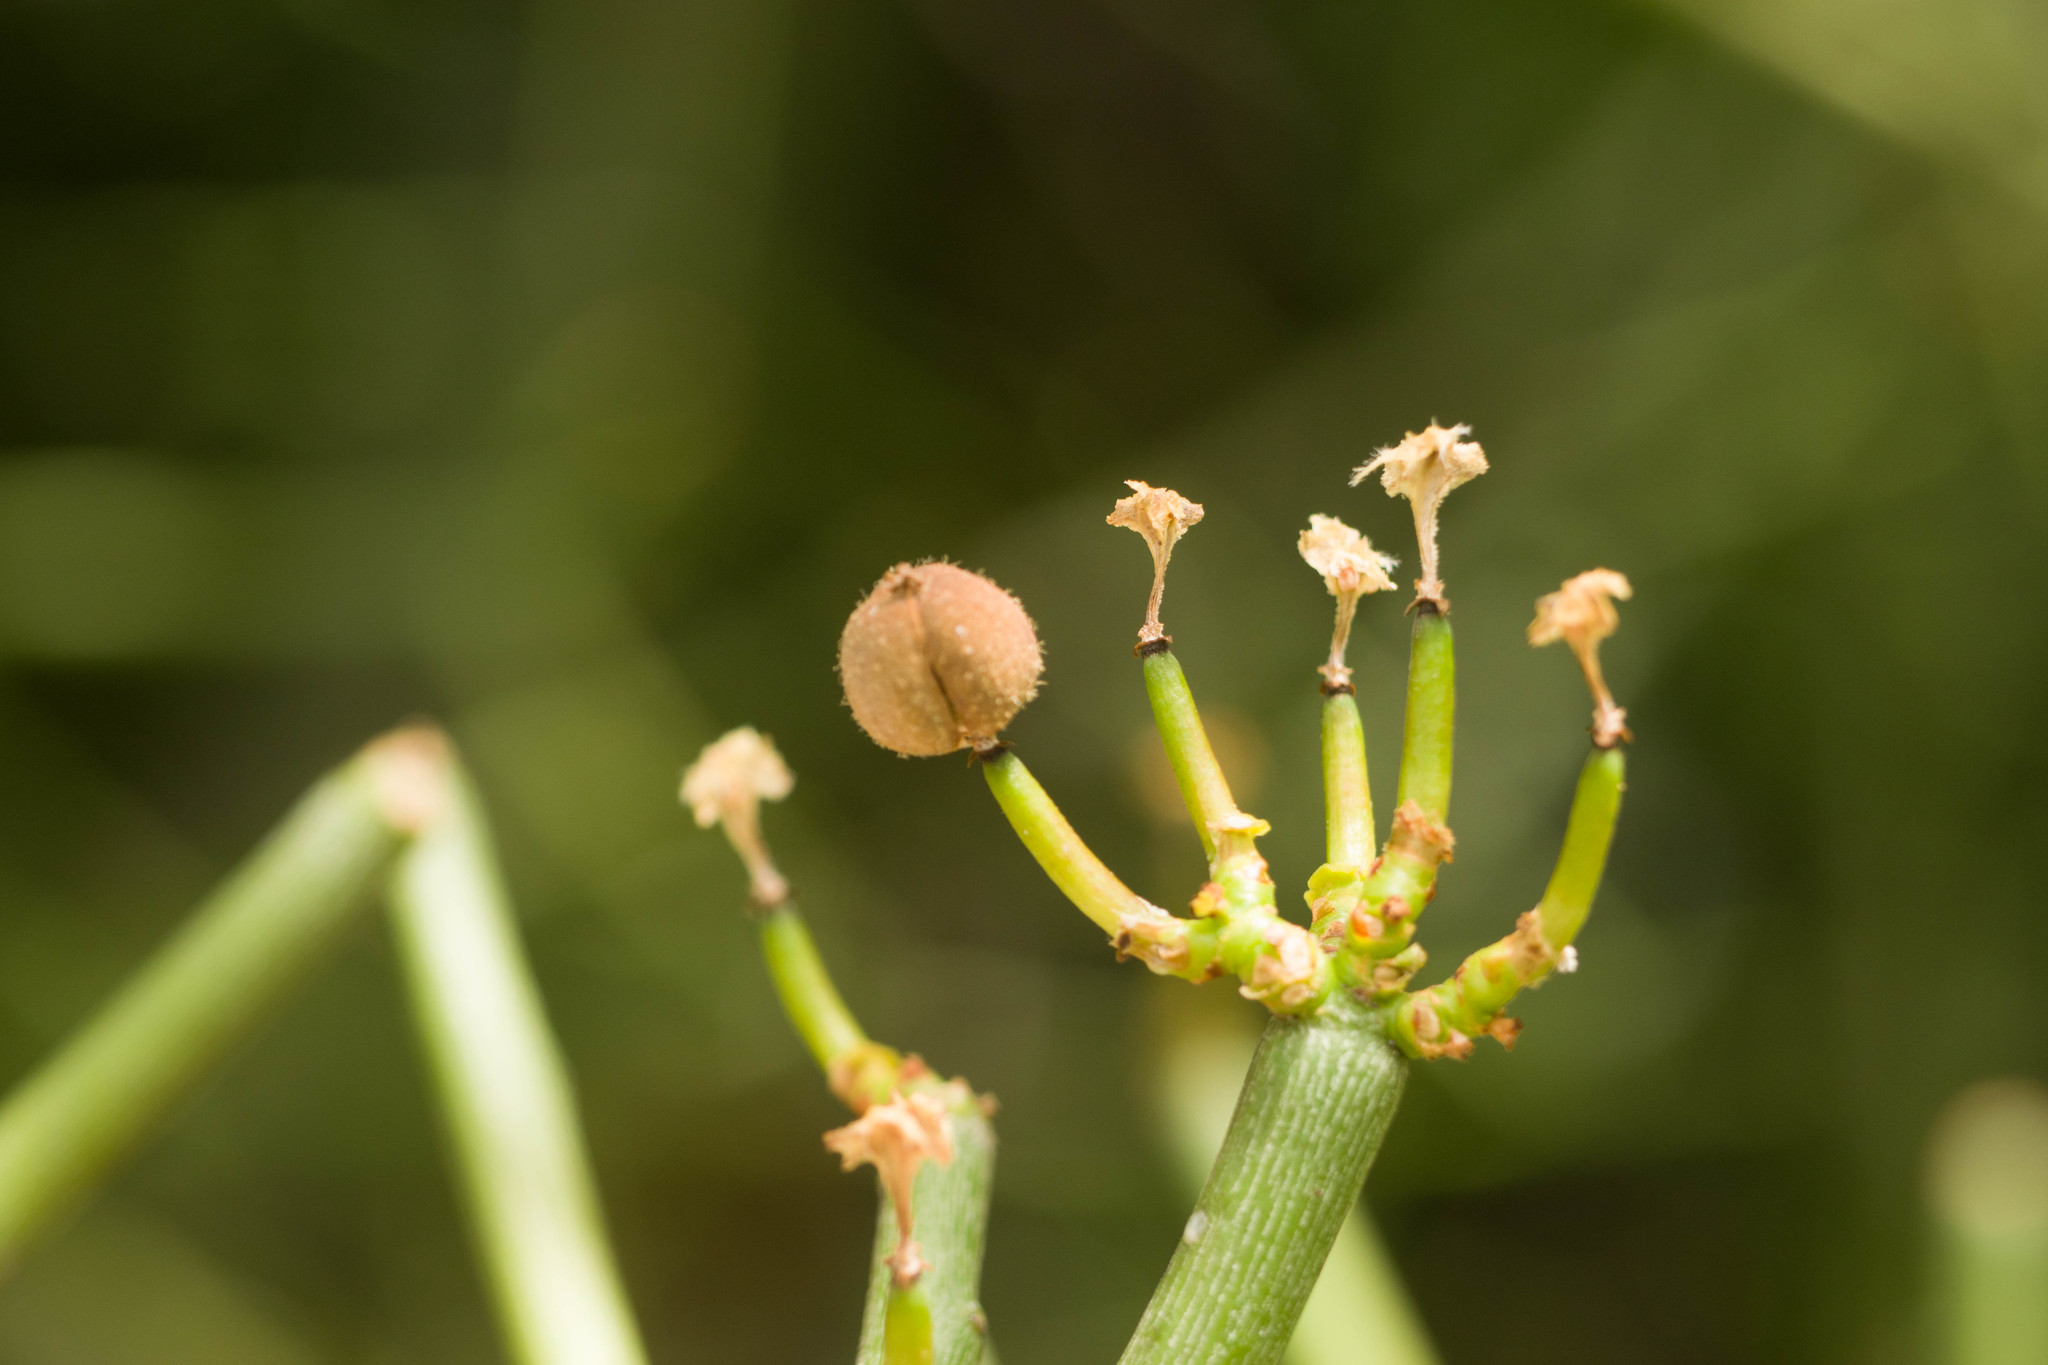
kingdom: Plantae
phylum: Tracheophyta
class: Magnoliopsida
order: Malpighiales
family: Euphorbiaceae
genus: Euphorbia
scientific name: Euphorbia tirucalli
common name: Indiantree spurge
